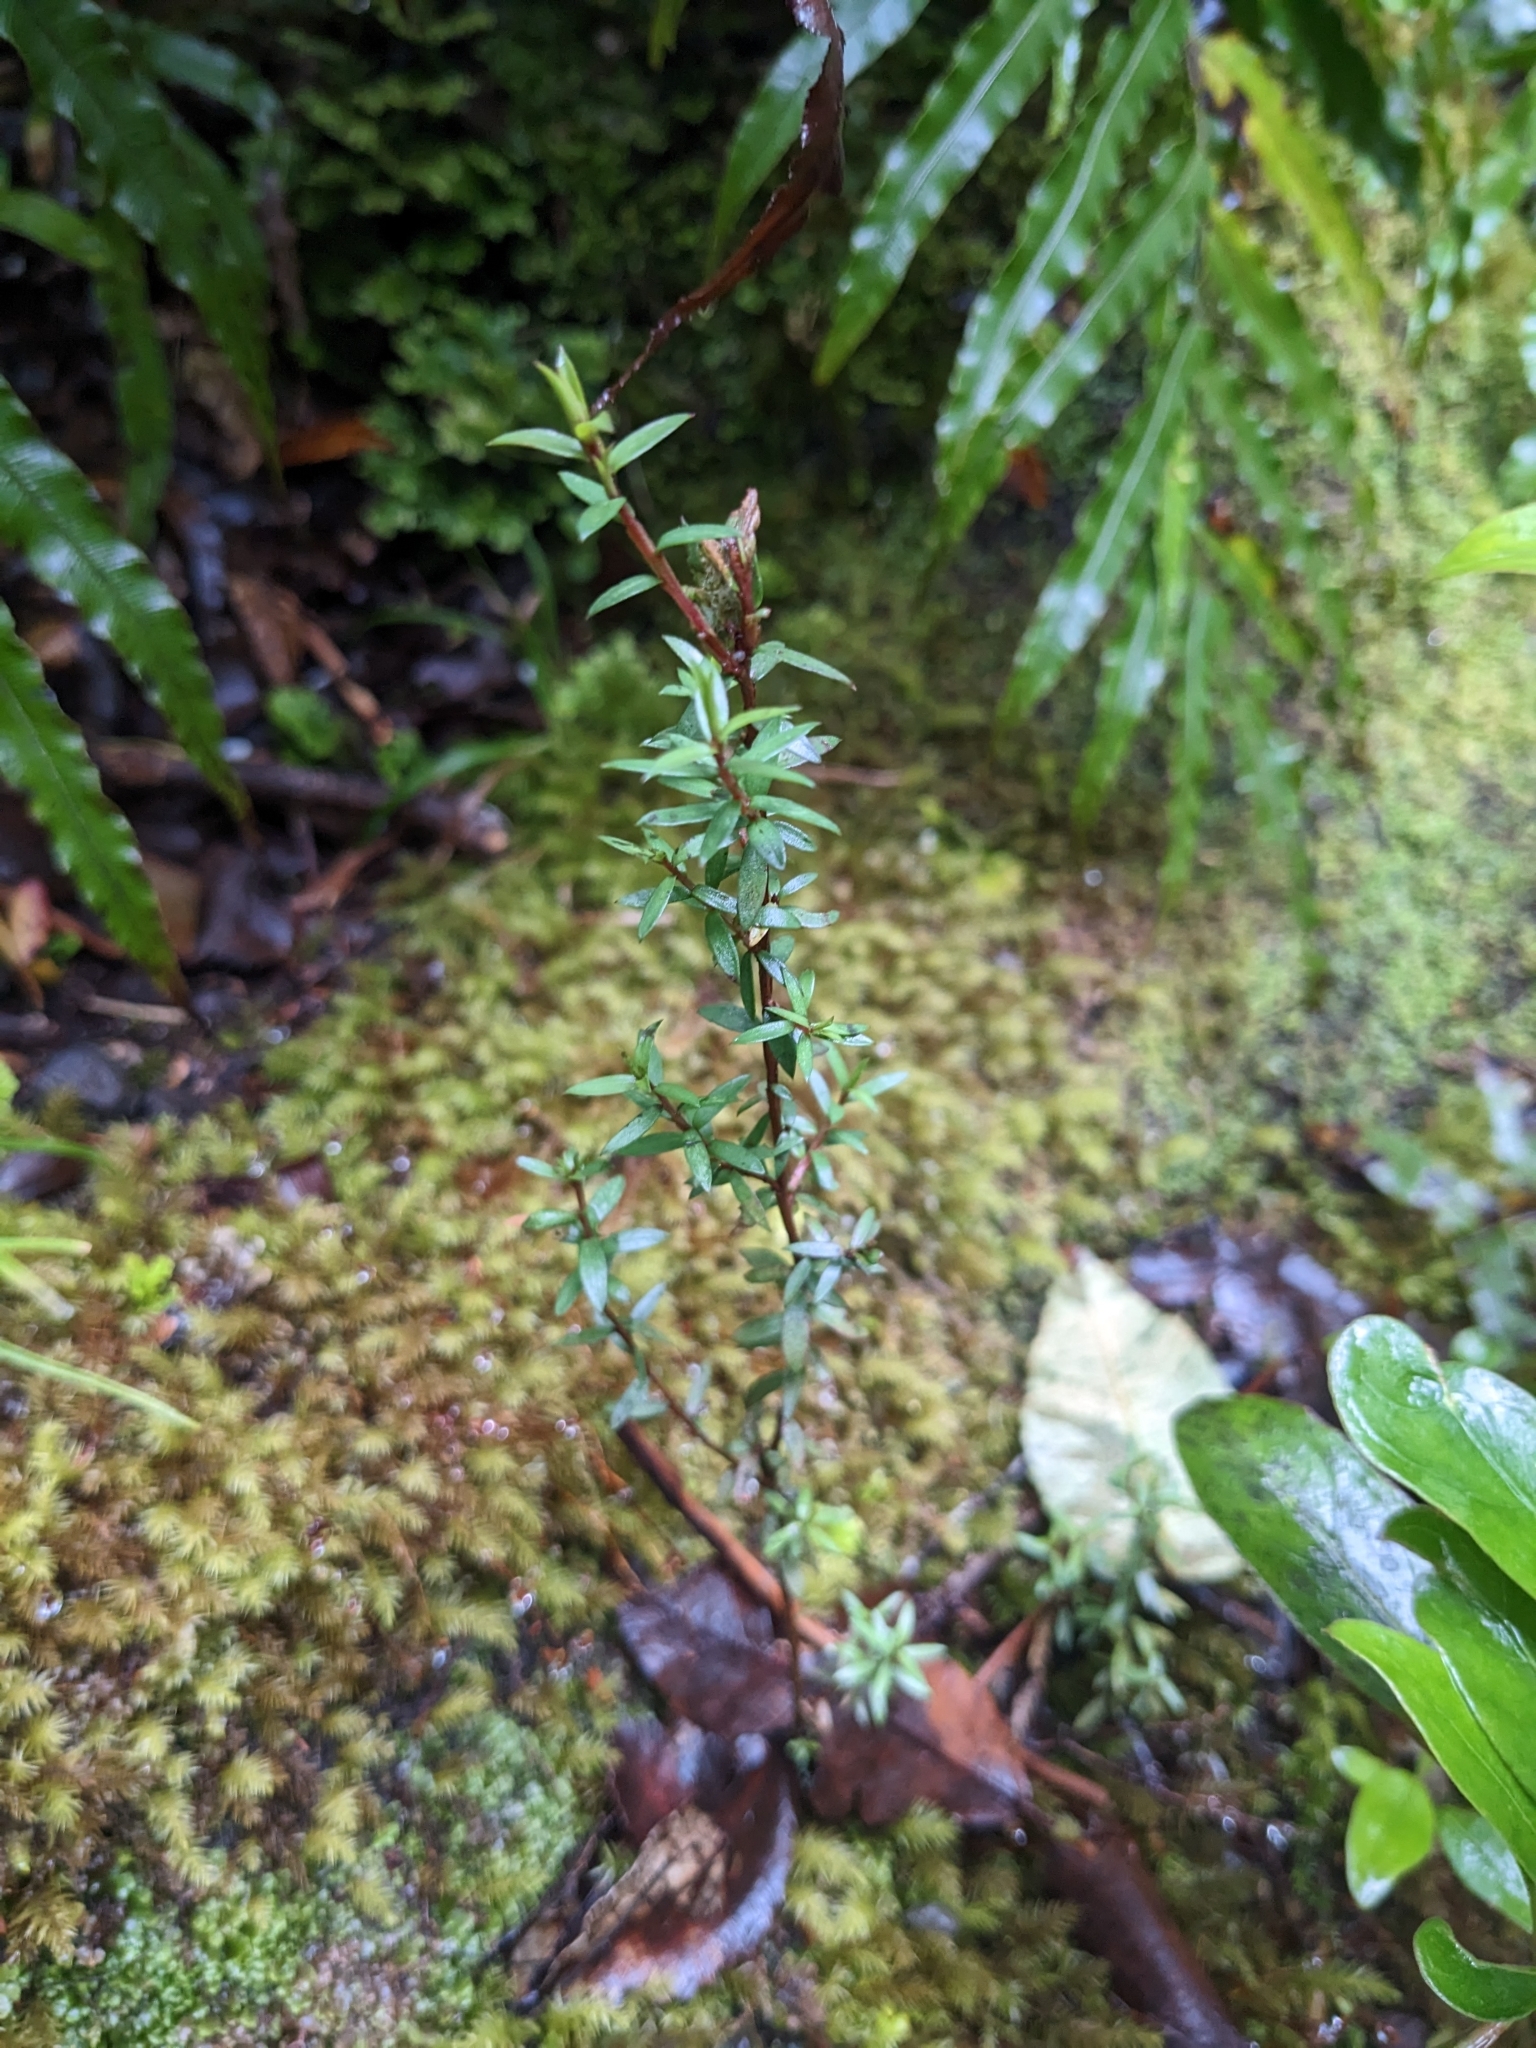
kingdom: Plantae
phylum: Tracheophyta
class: Magnoliopsida
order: Myrtales
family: Myrtaceae
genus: Leptospermum
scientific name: Leptospermum scoparium
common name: Broom tea-tree
